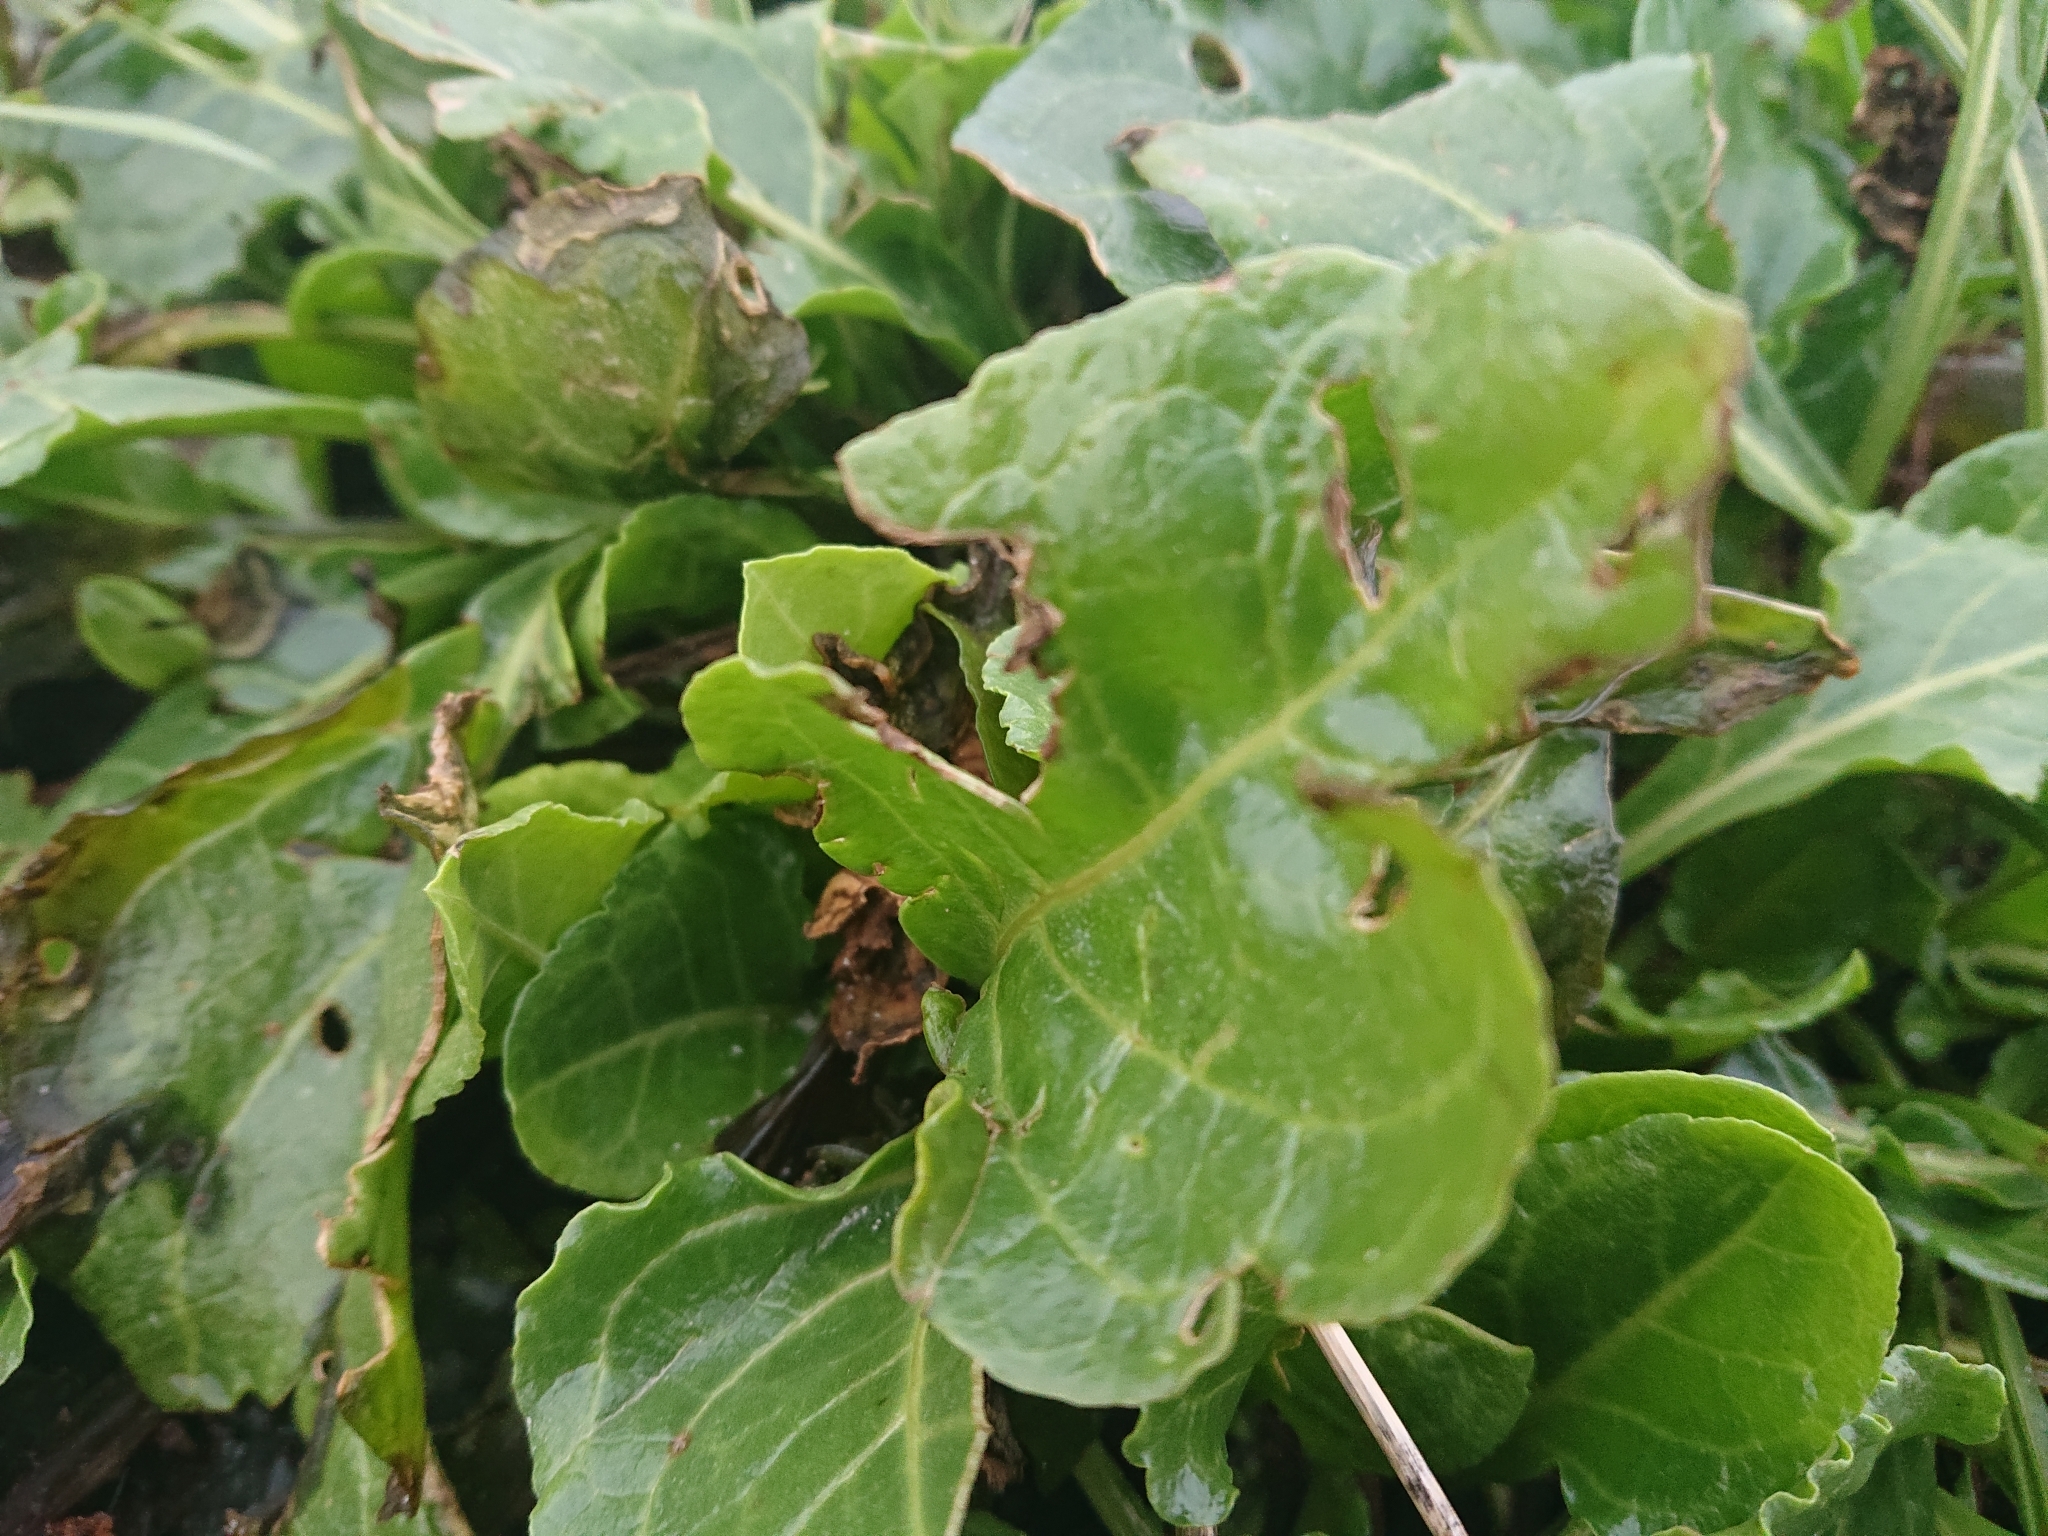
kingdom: Plantae
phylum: Tracheophyta
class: Magnoliopsida
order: Caryophyllales
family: Amaranthaceae
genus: Beta
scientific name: Beta vulgaris
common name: Beet
